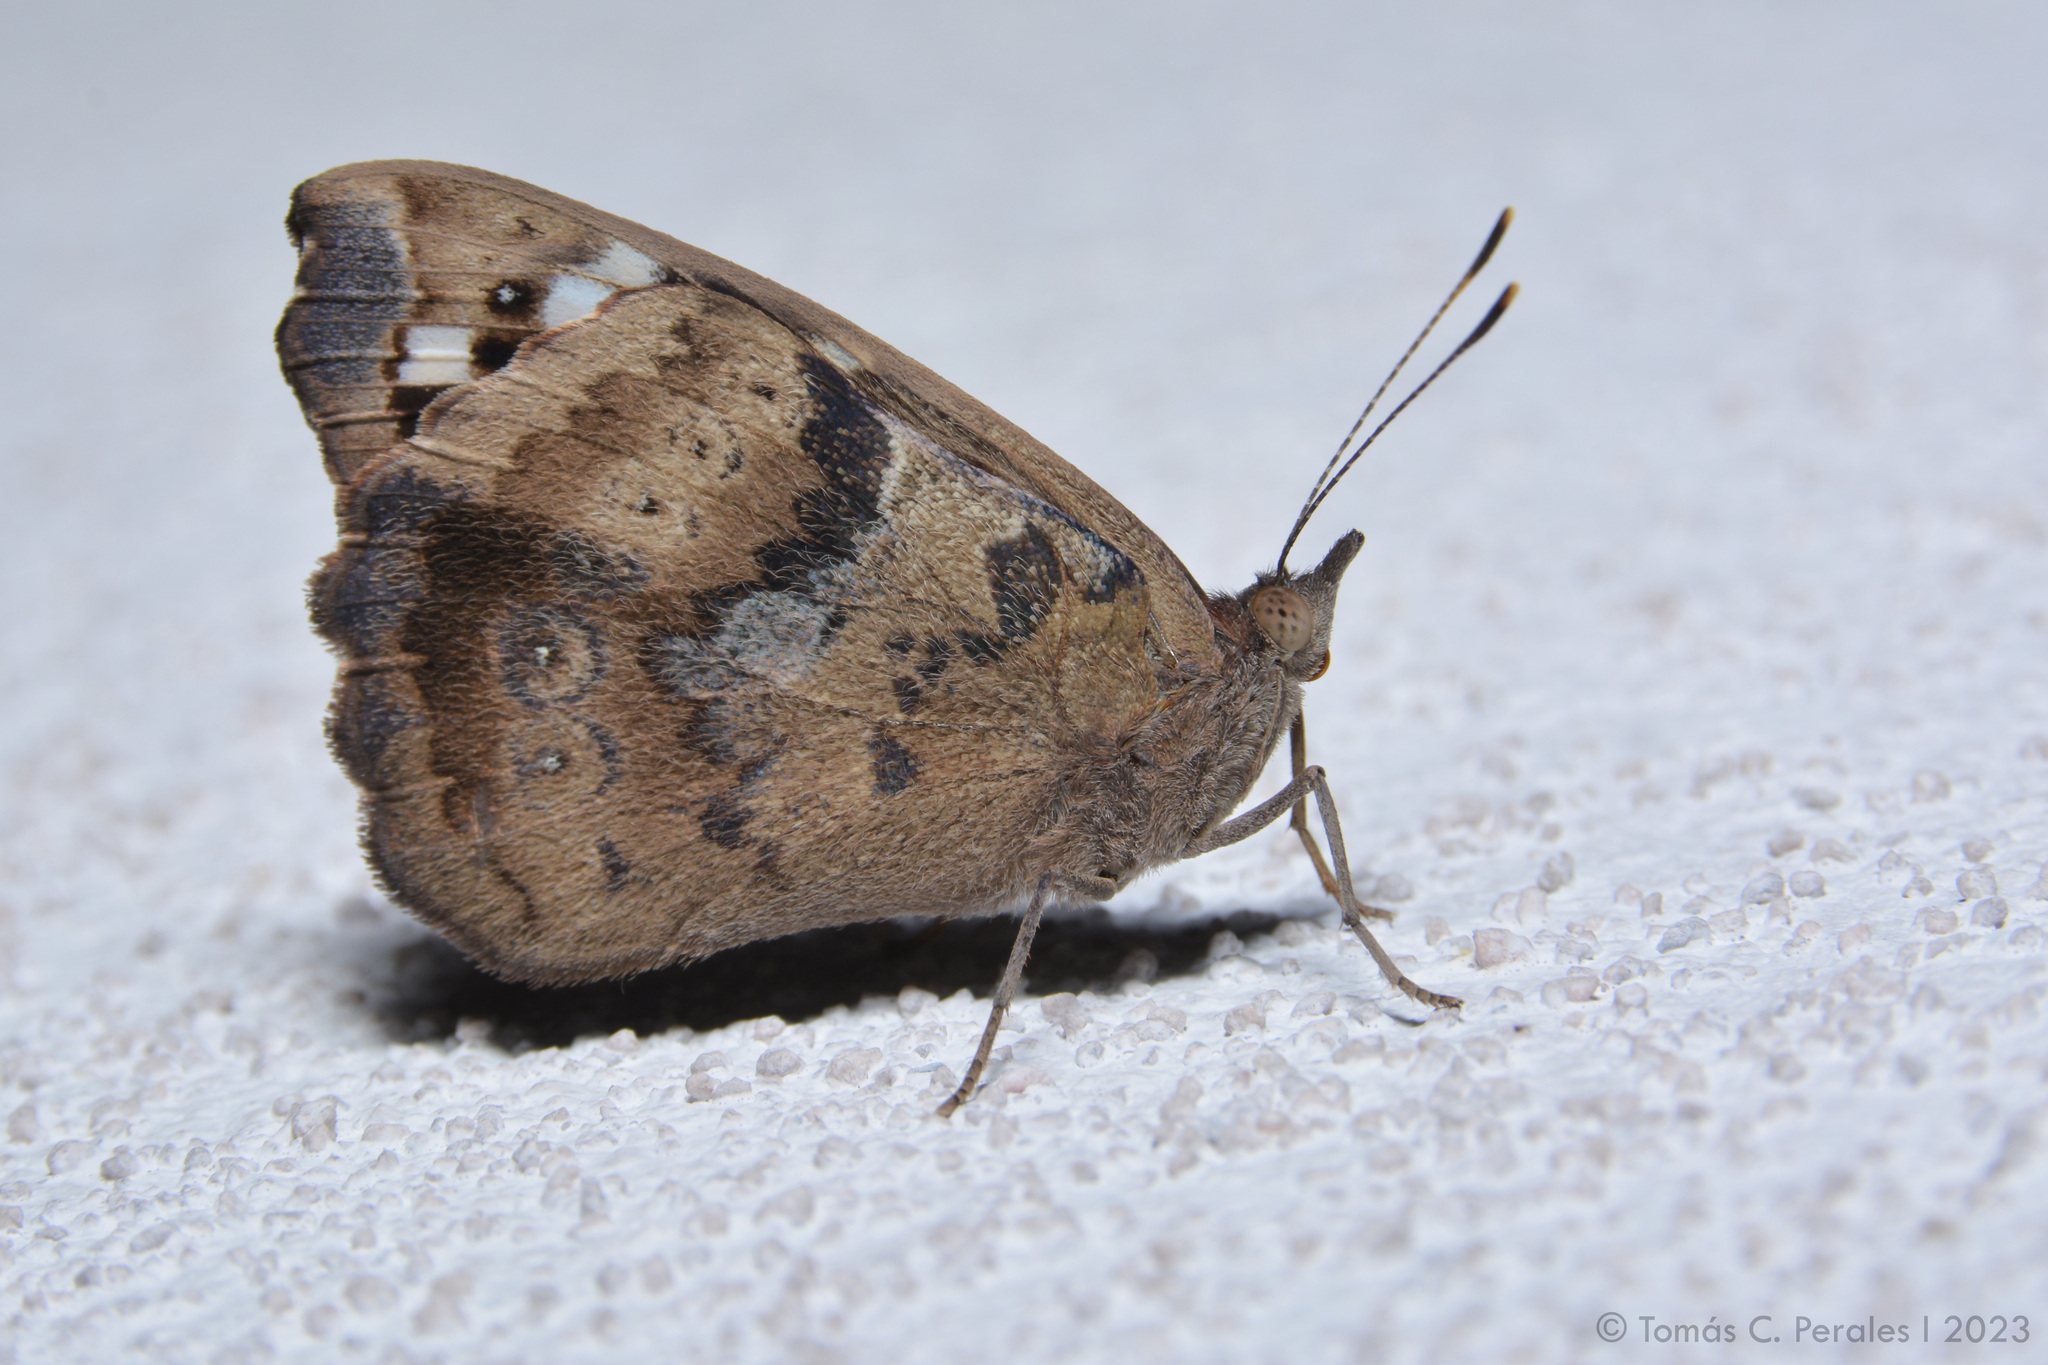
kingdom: Animalia
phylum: Arthropoda
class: Insecta
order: Lepidoptera
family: Nymphalidae
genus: Eunica
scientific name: Eunica tatila
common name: Florida purplewing
